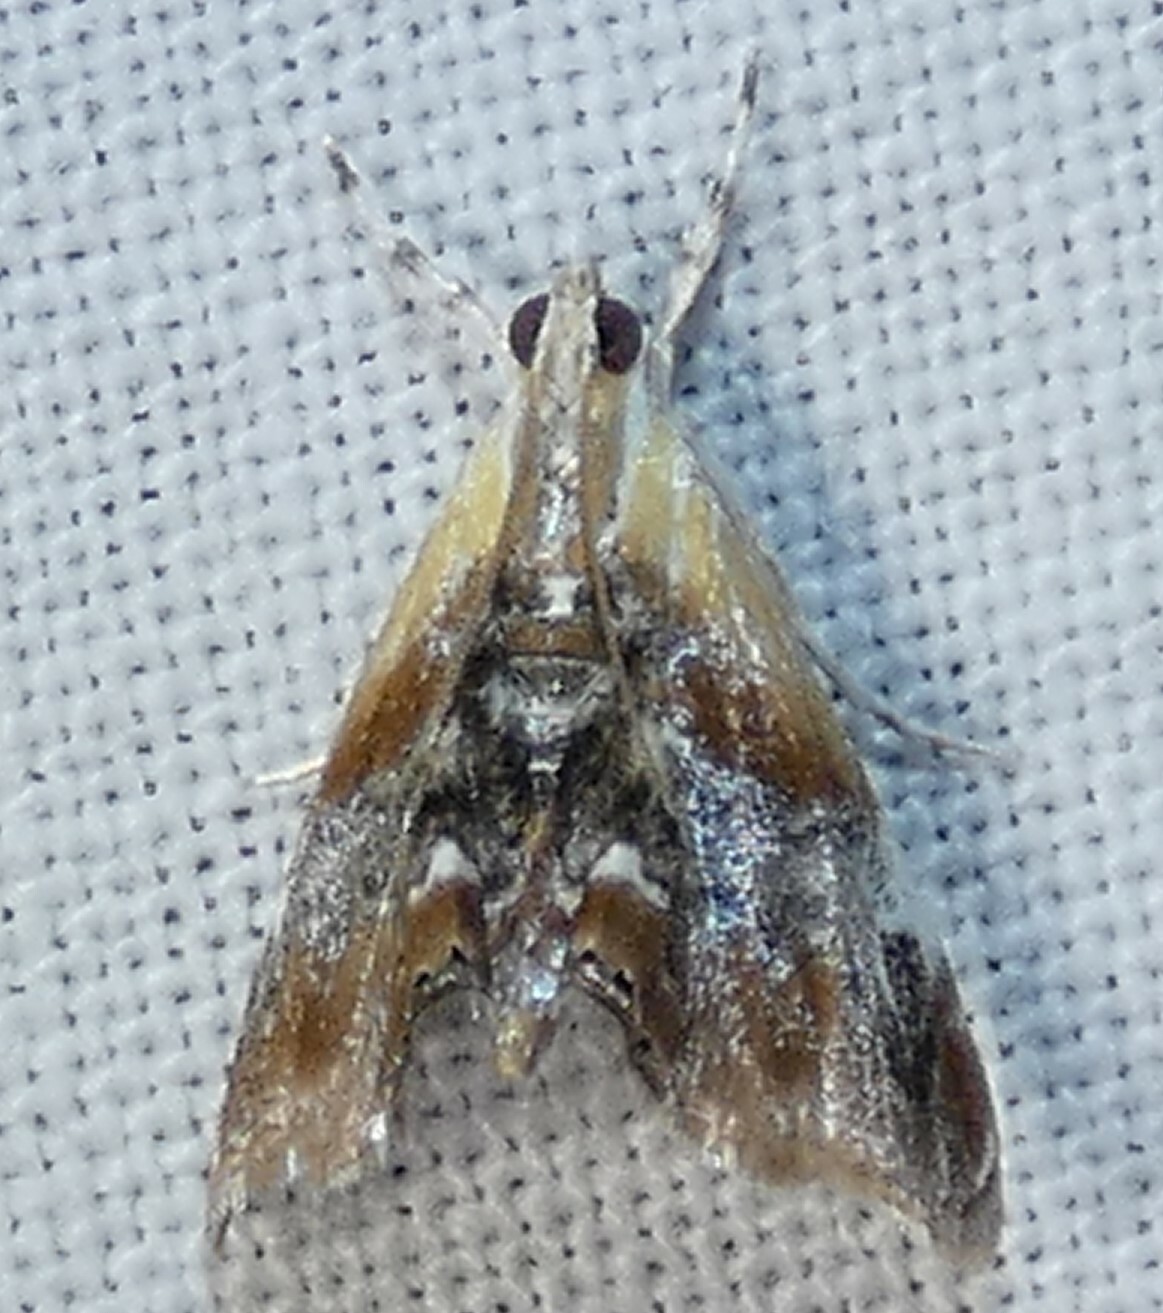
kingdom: Animalia
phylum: Arthropoda
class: Insecta
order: Lepidoptera
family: Crambidae
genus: Dicymolomia
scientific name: Dicymolomia julianalis
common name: Julia's dicymolomia moth
